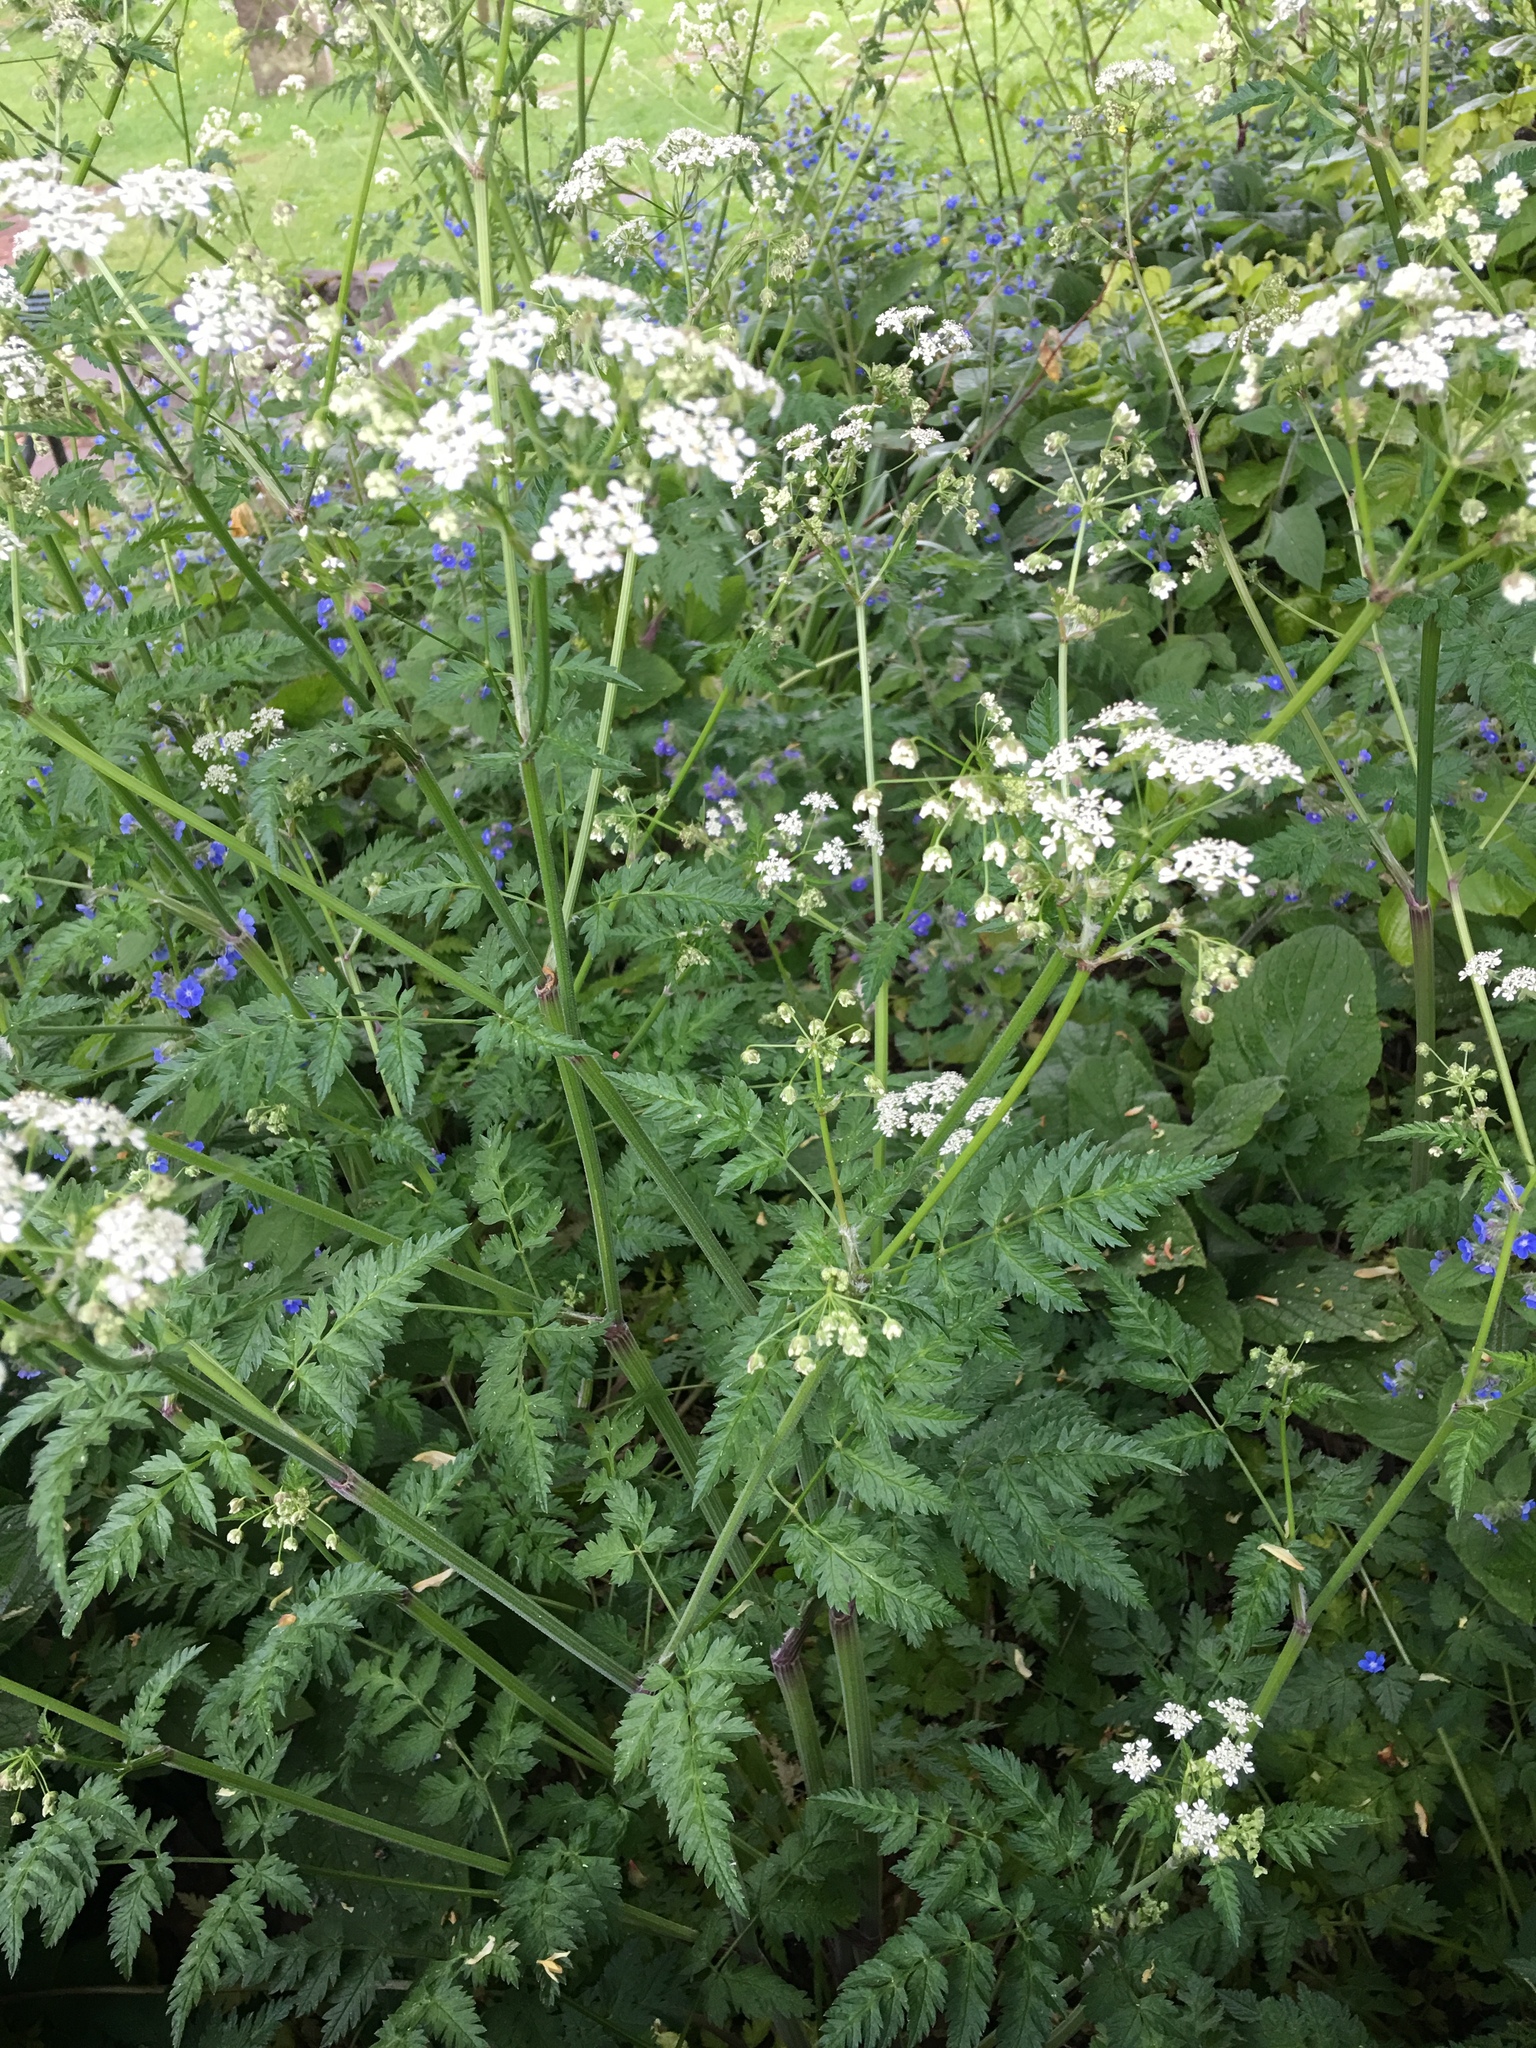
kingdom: Plantae
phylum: Tracheophyta
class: Magnoliopsida
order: Apiales
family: Apiaceae
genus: Anthriscus
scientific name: Anthriscus sylvestris
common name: Cow parsley
